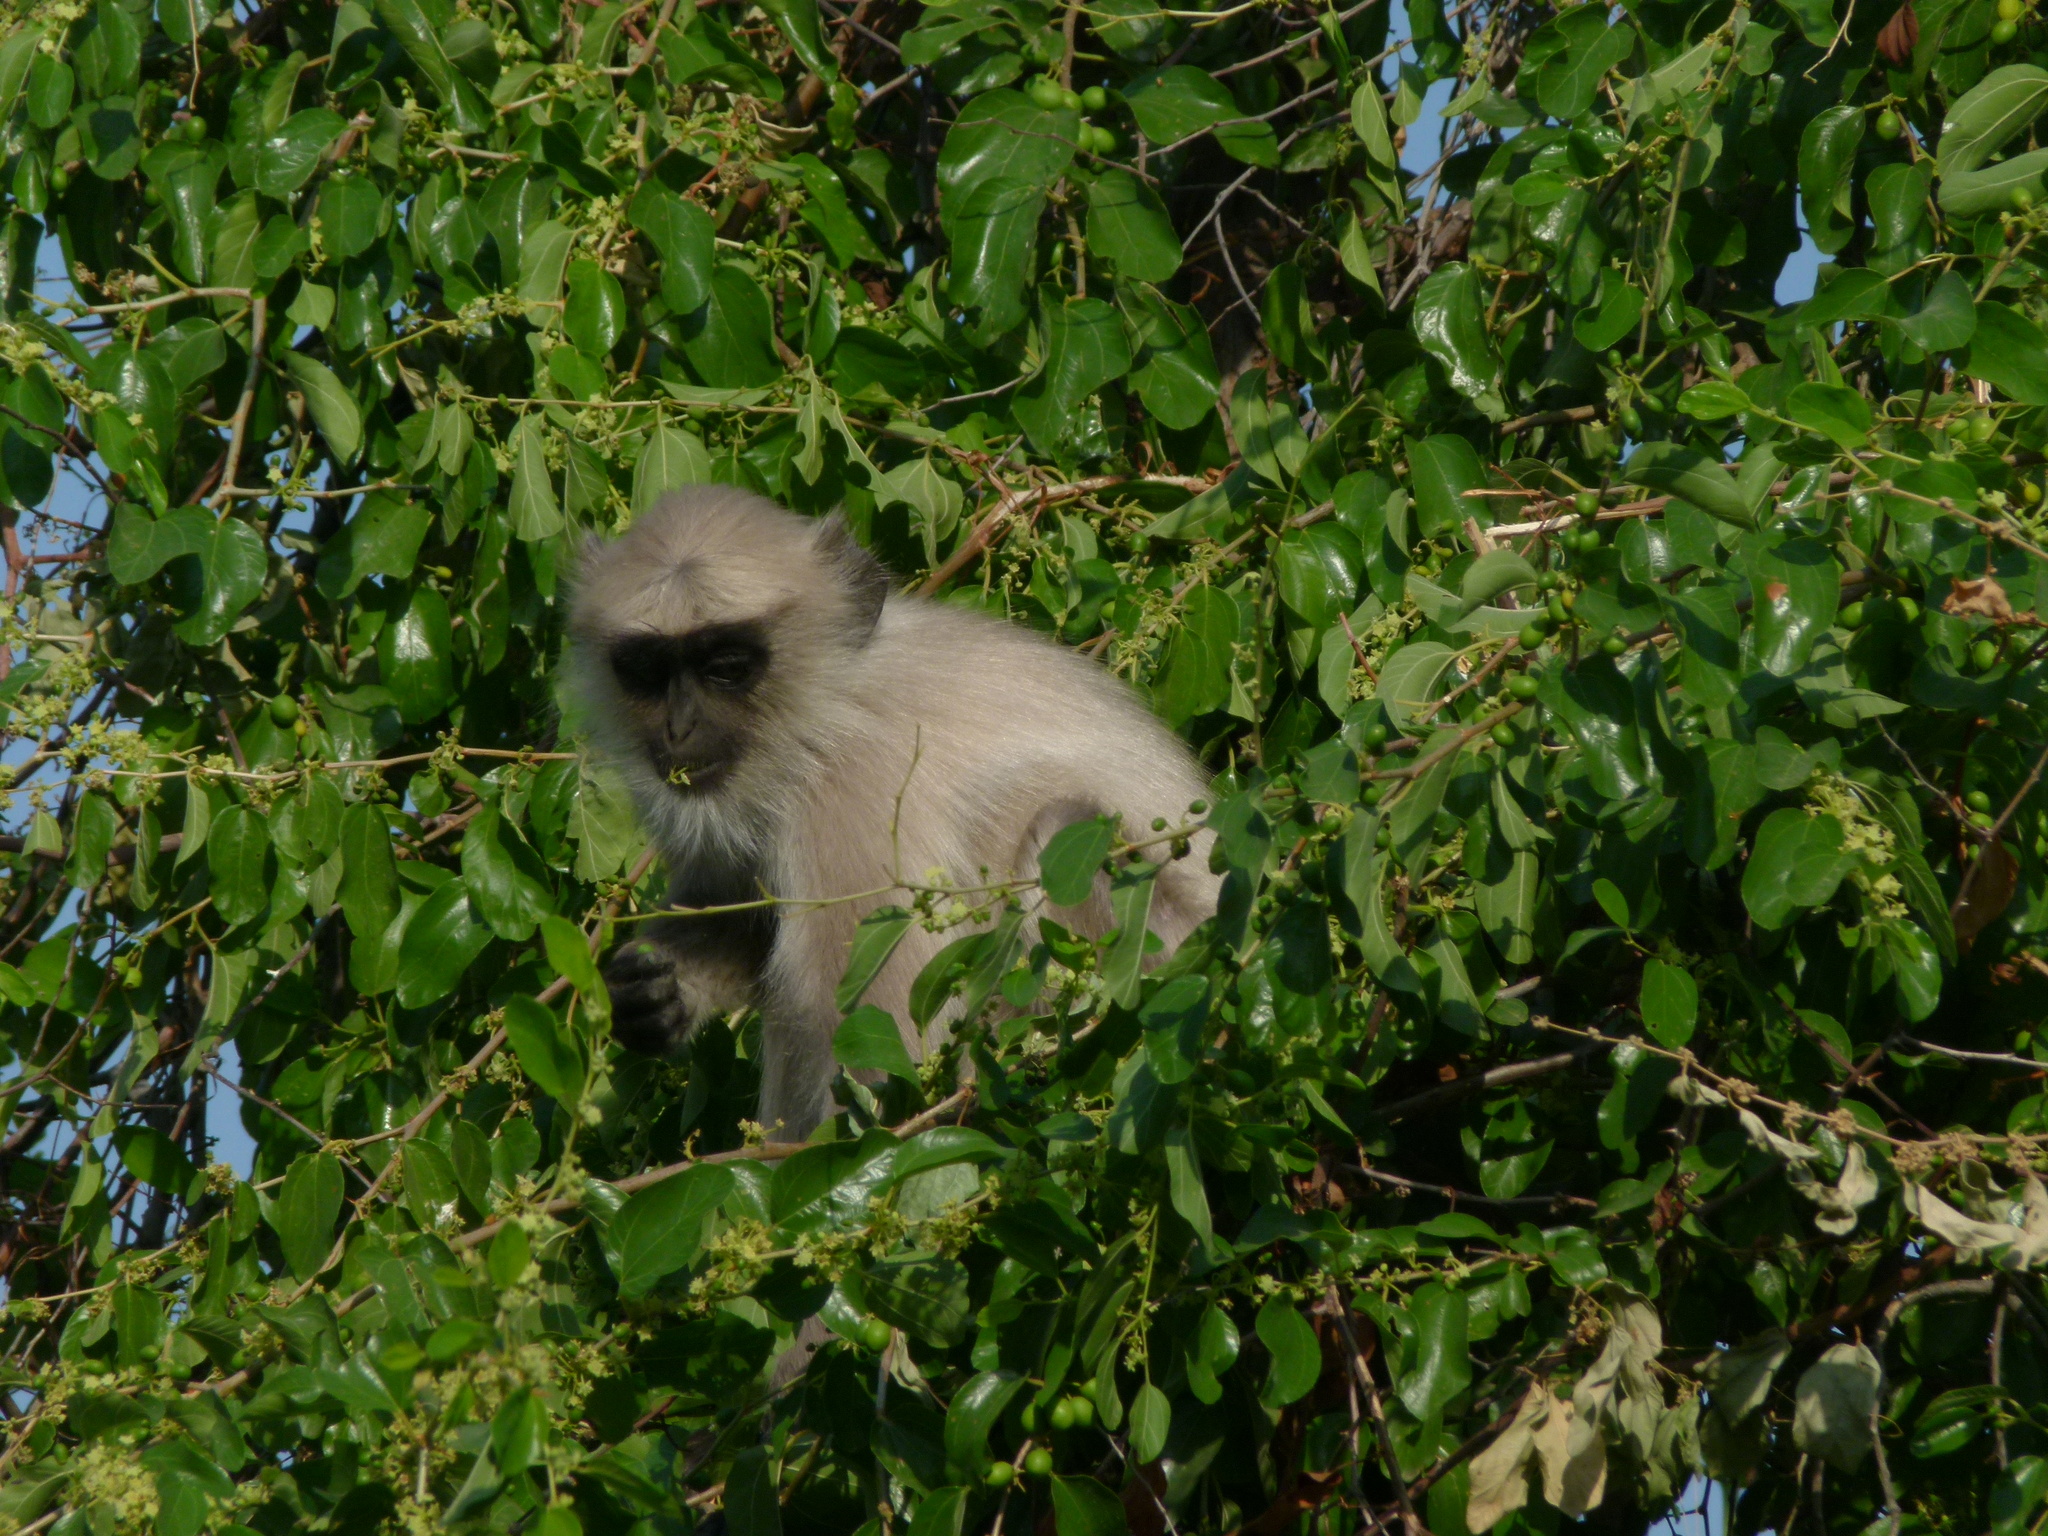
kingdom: Animalia
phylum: Chordata
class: Mammalia
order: Primates
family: Cercopithecidae
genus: Semnopithecus
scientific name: Semnopithecus entellus
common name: Northern plains gray langur
